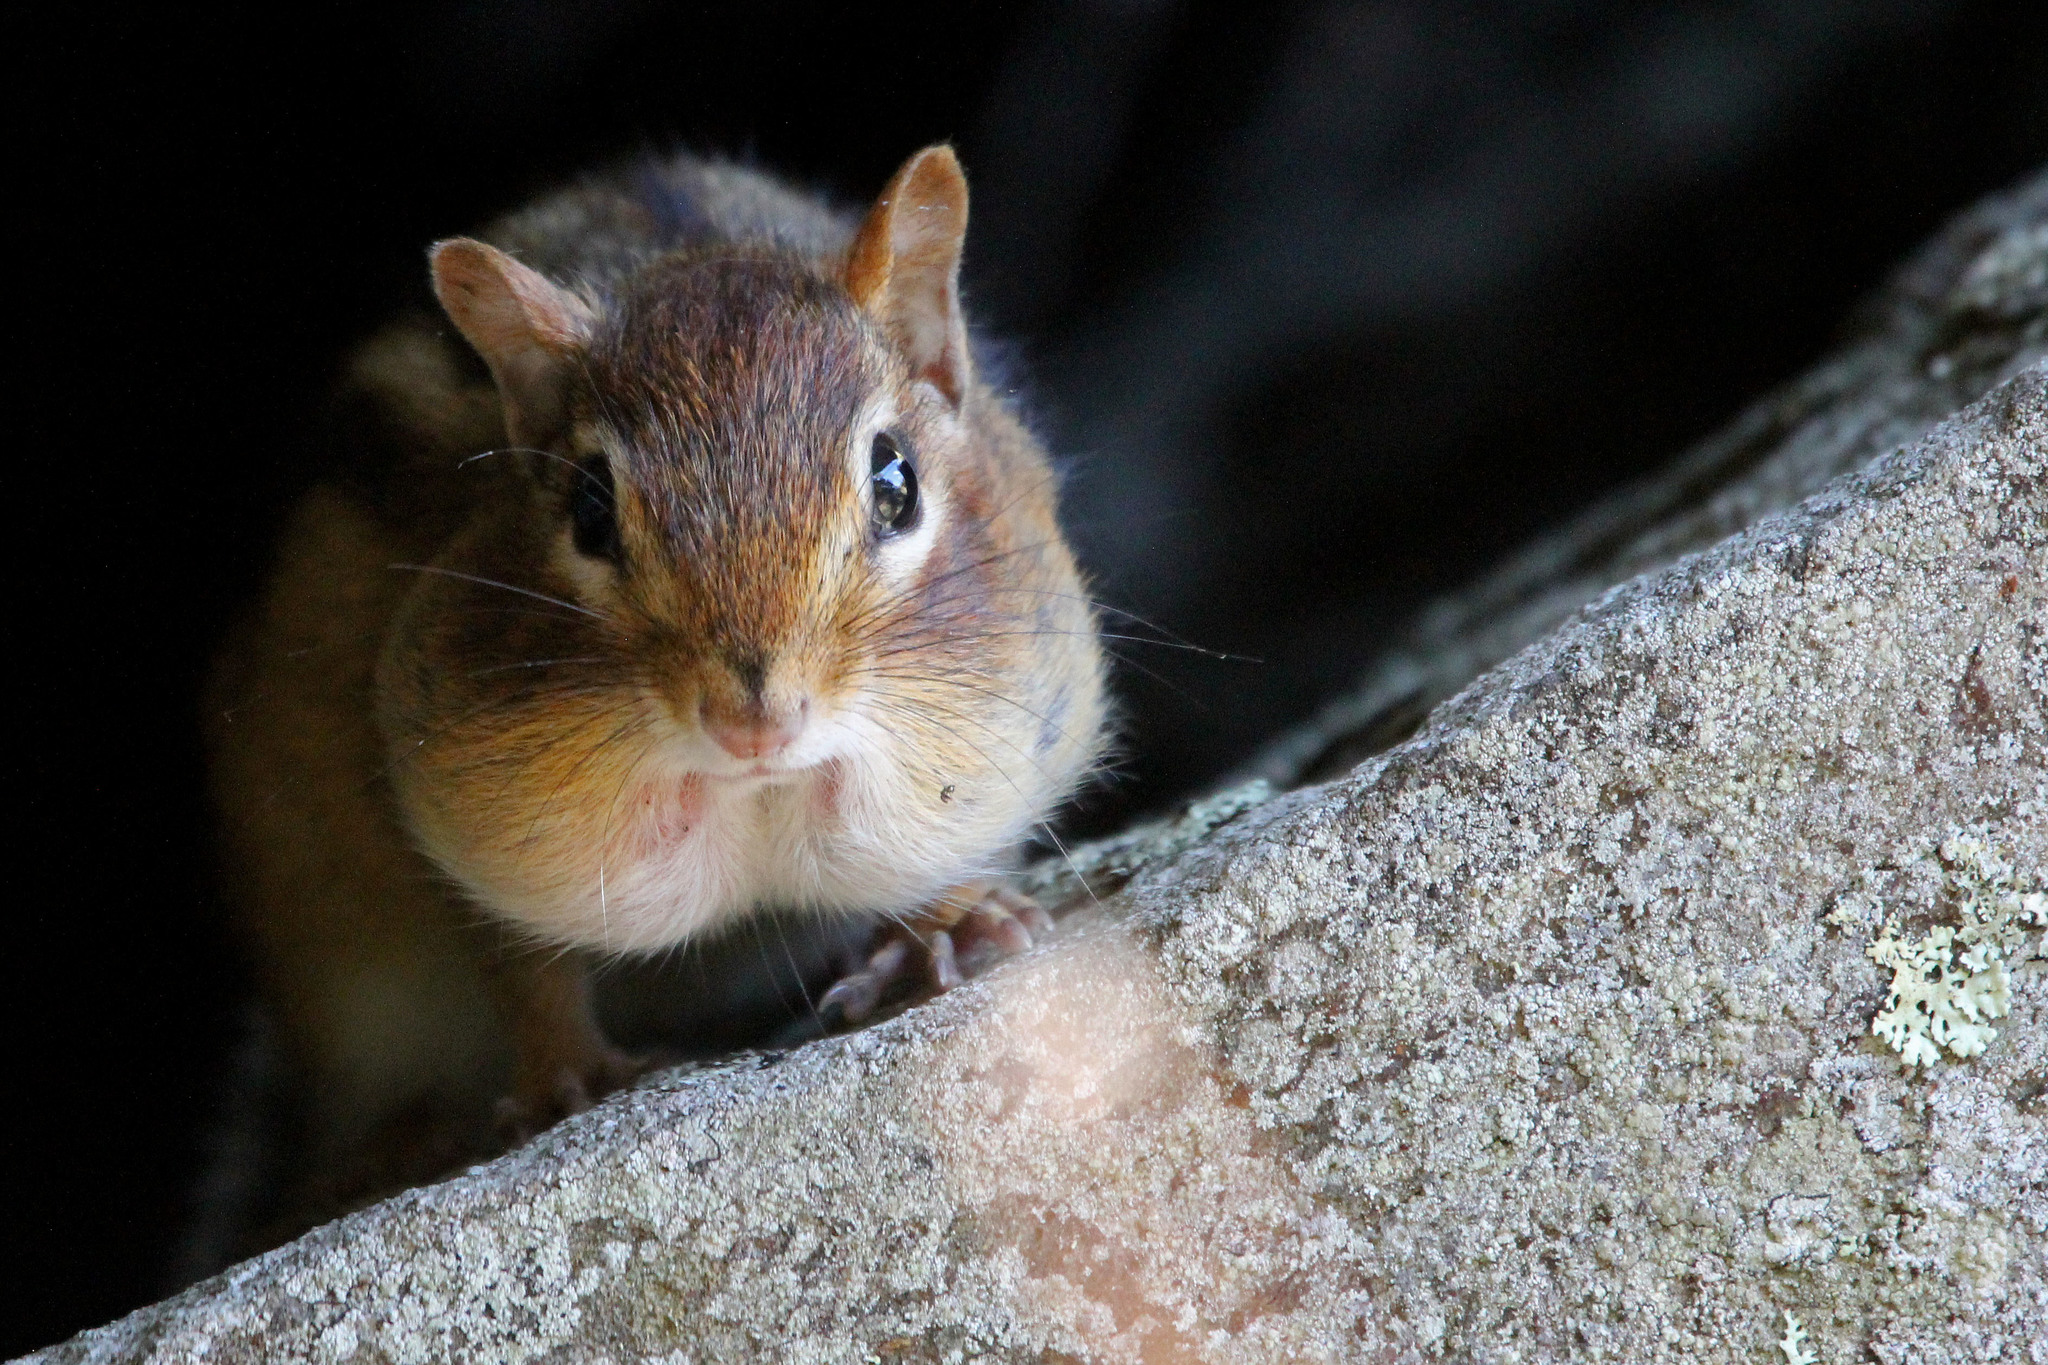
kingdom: Animalia
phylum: Chordata
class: Mammalia
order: Rodentia
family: Sciuridae
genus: Tamias
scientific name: Tamias striatus
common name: Eastern chipmunk
